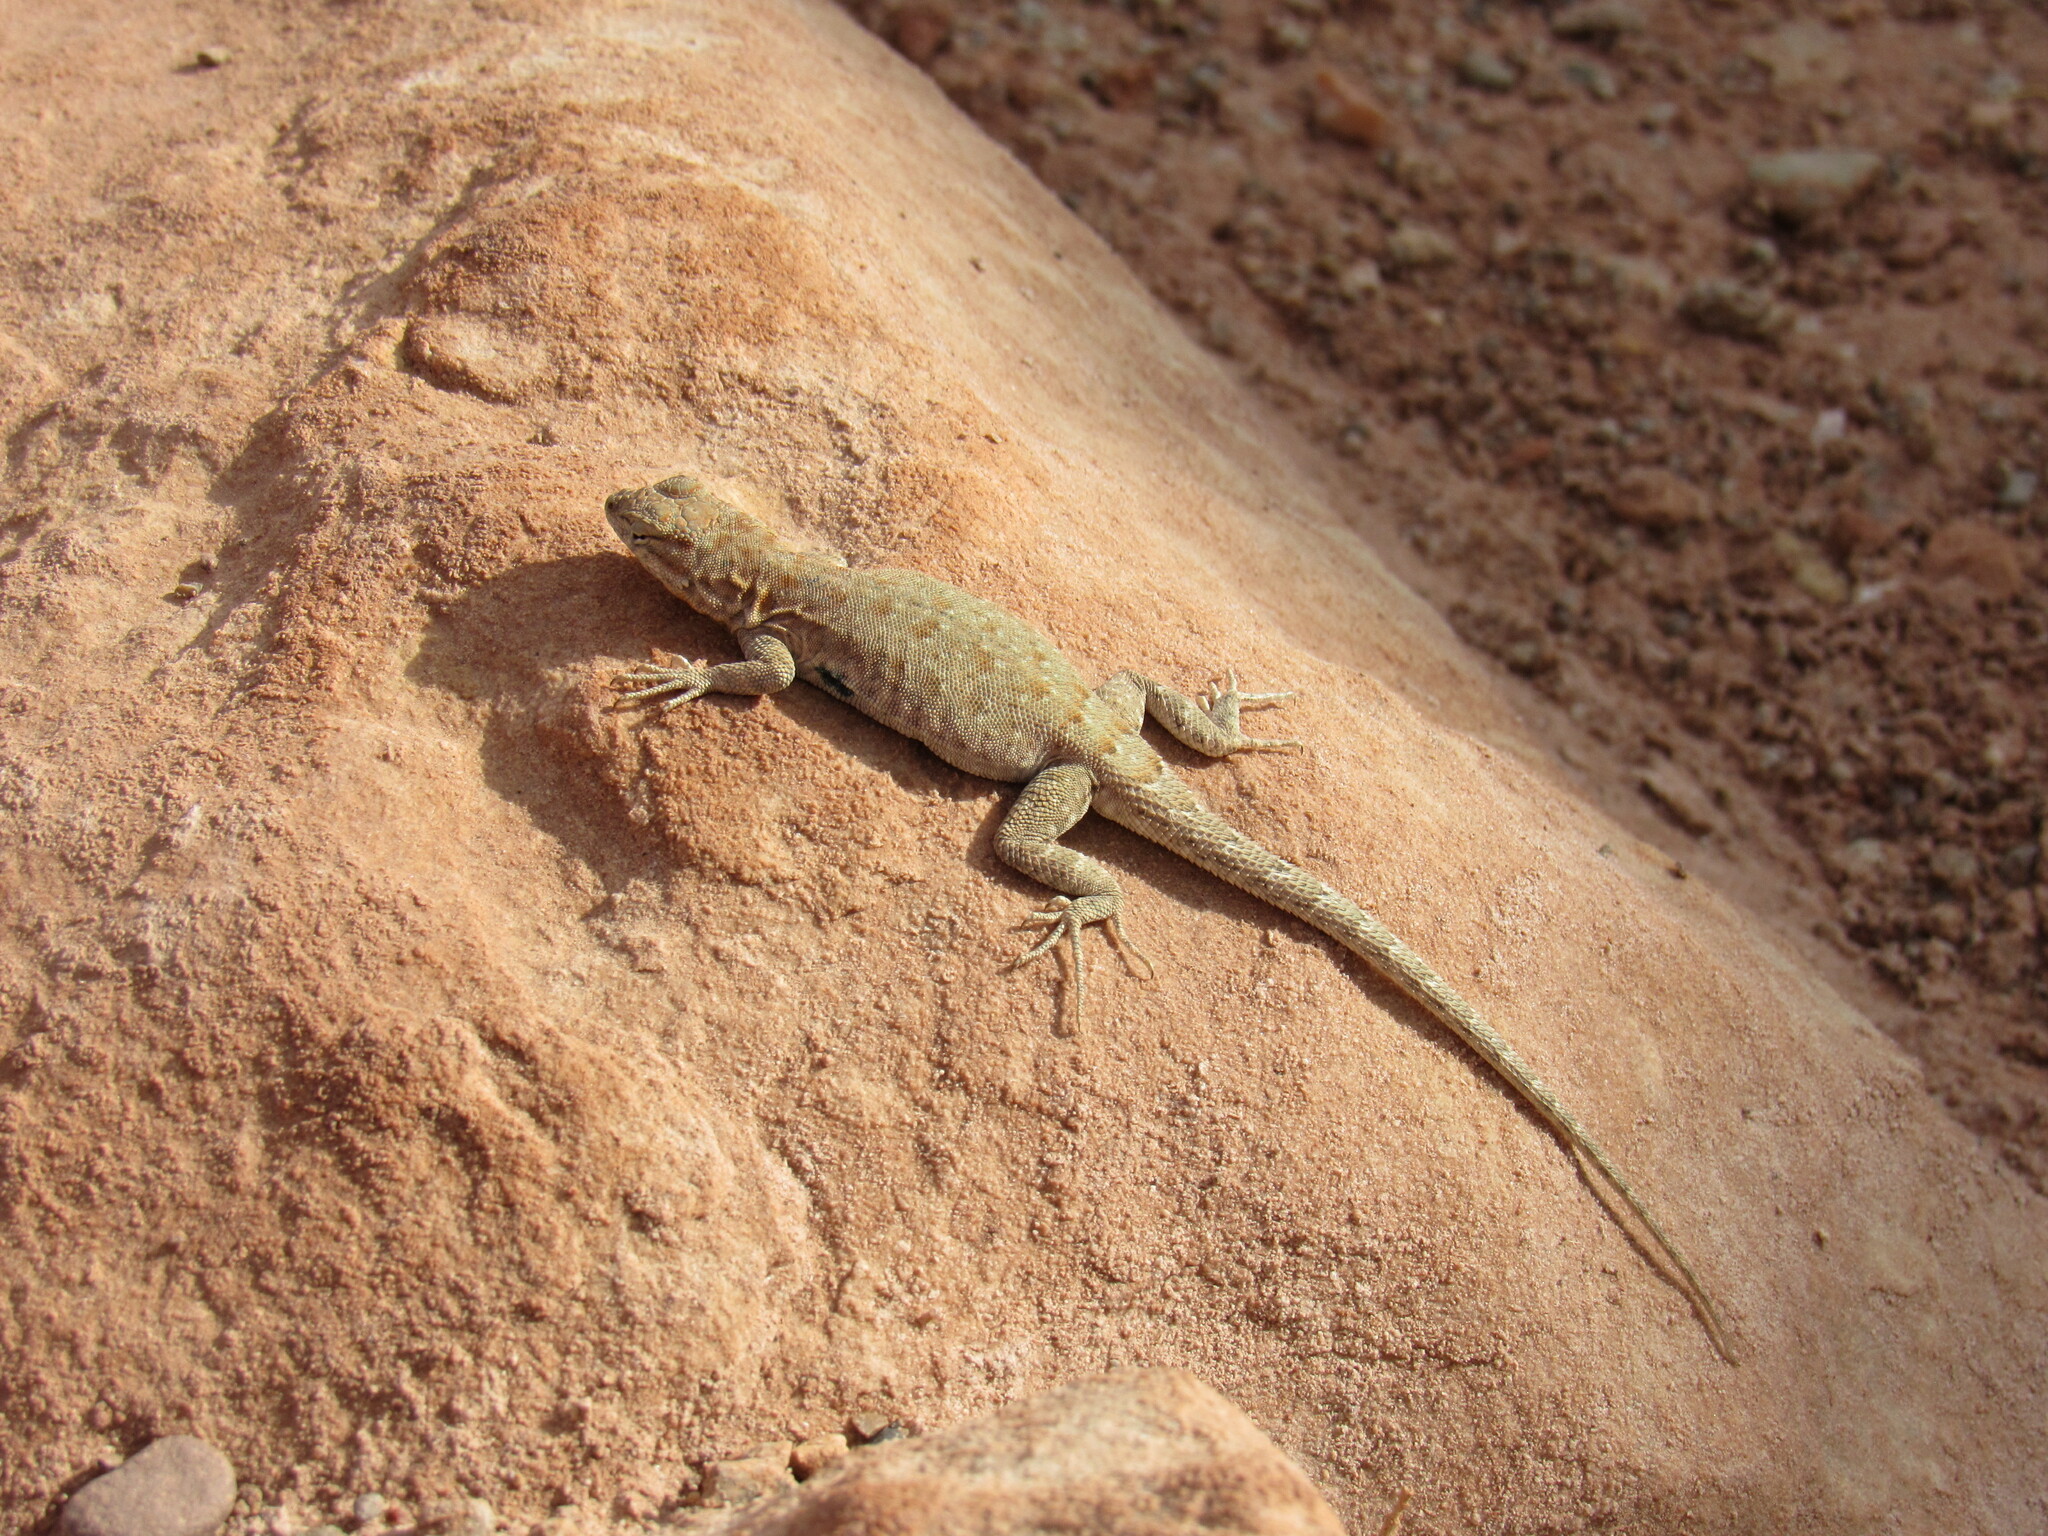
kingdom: Animalia
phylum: Chordata
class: Squamata
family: Phrynosomatidae
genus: Uta
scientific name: Uta stansburiana
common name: Side-blotched lizard
